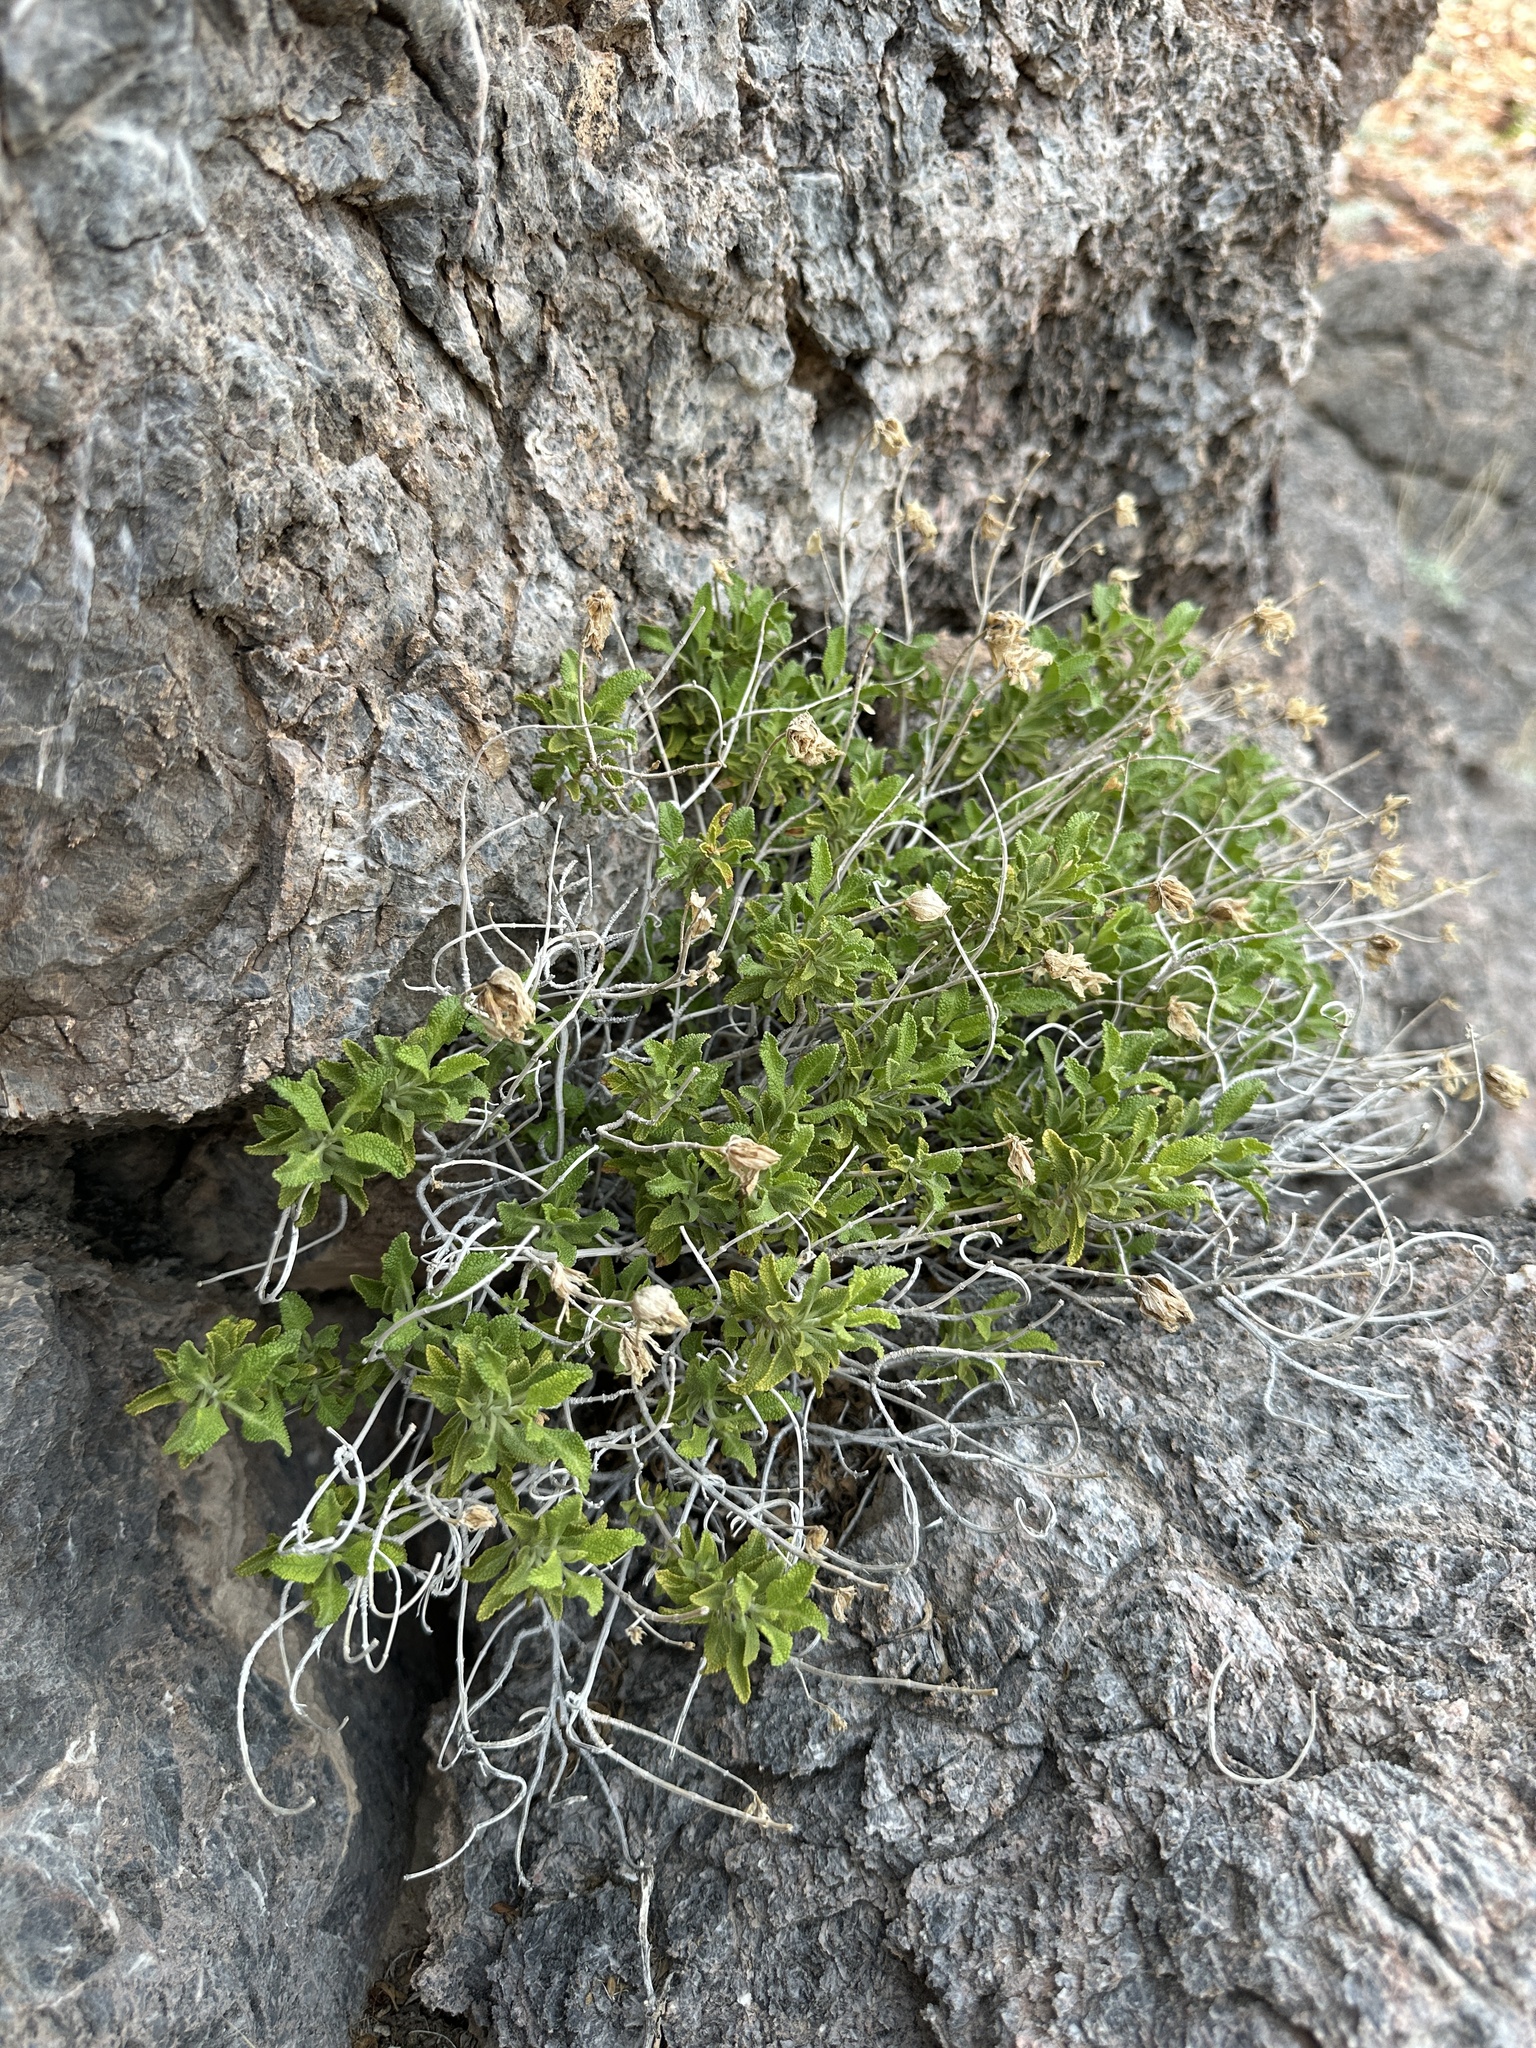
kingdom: Plantae
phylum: Tracheophyta
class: Magnoliopsida
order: Lamiales
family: Lamiaceae
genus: Salvia
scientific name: Salvia mohavensis
